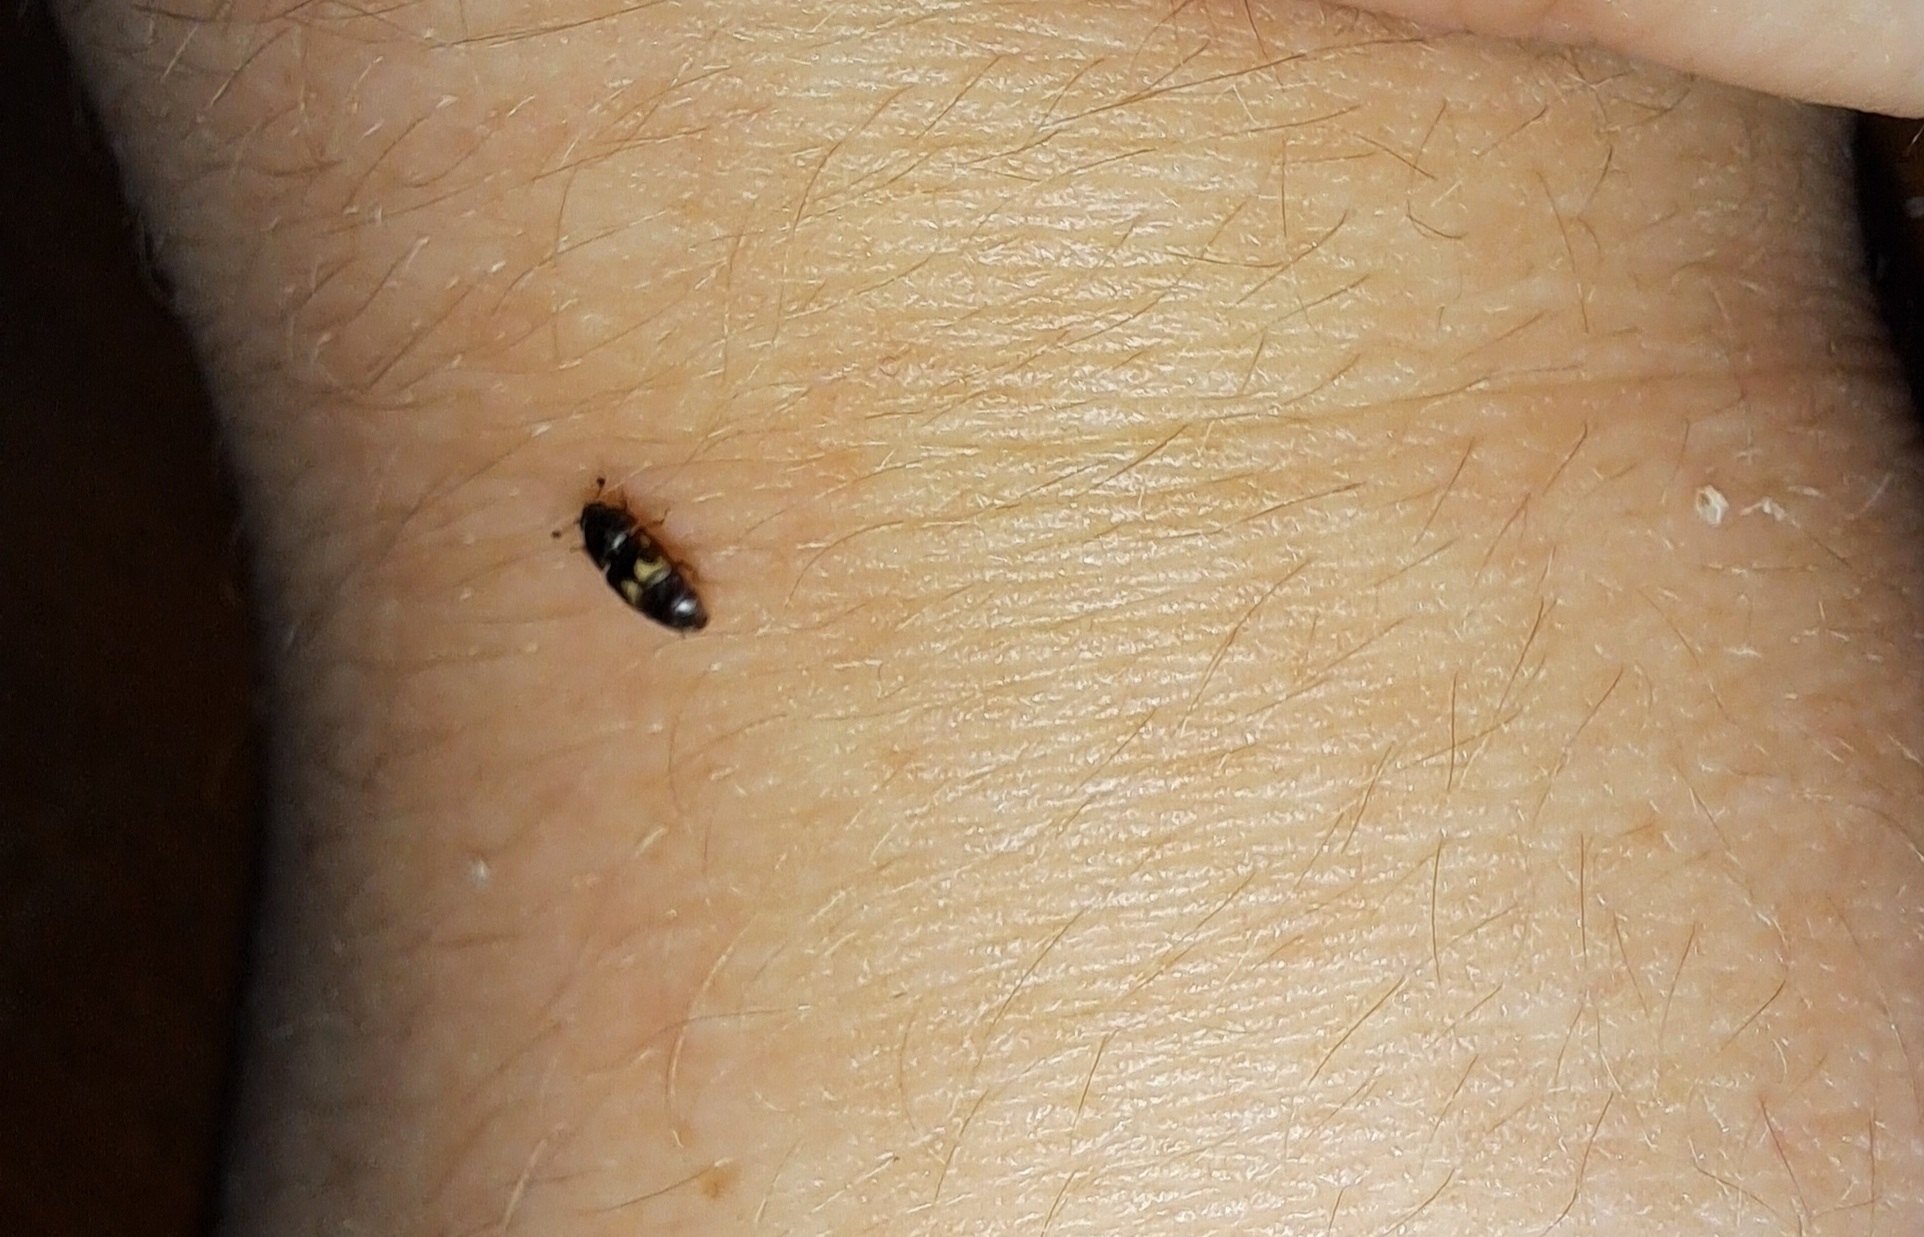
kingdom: Animalia
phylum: Arthropoda
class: Insecta
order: Coleoptera
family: Nitidulidae
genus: Carpophilus
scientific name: Carpophilus hemipterus
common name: Dried fruit beetle
